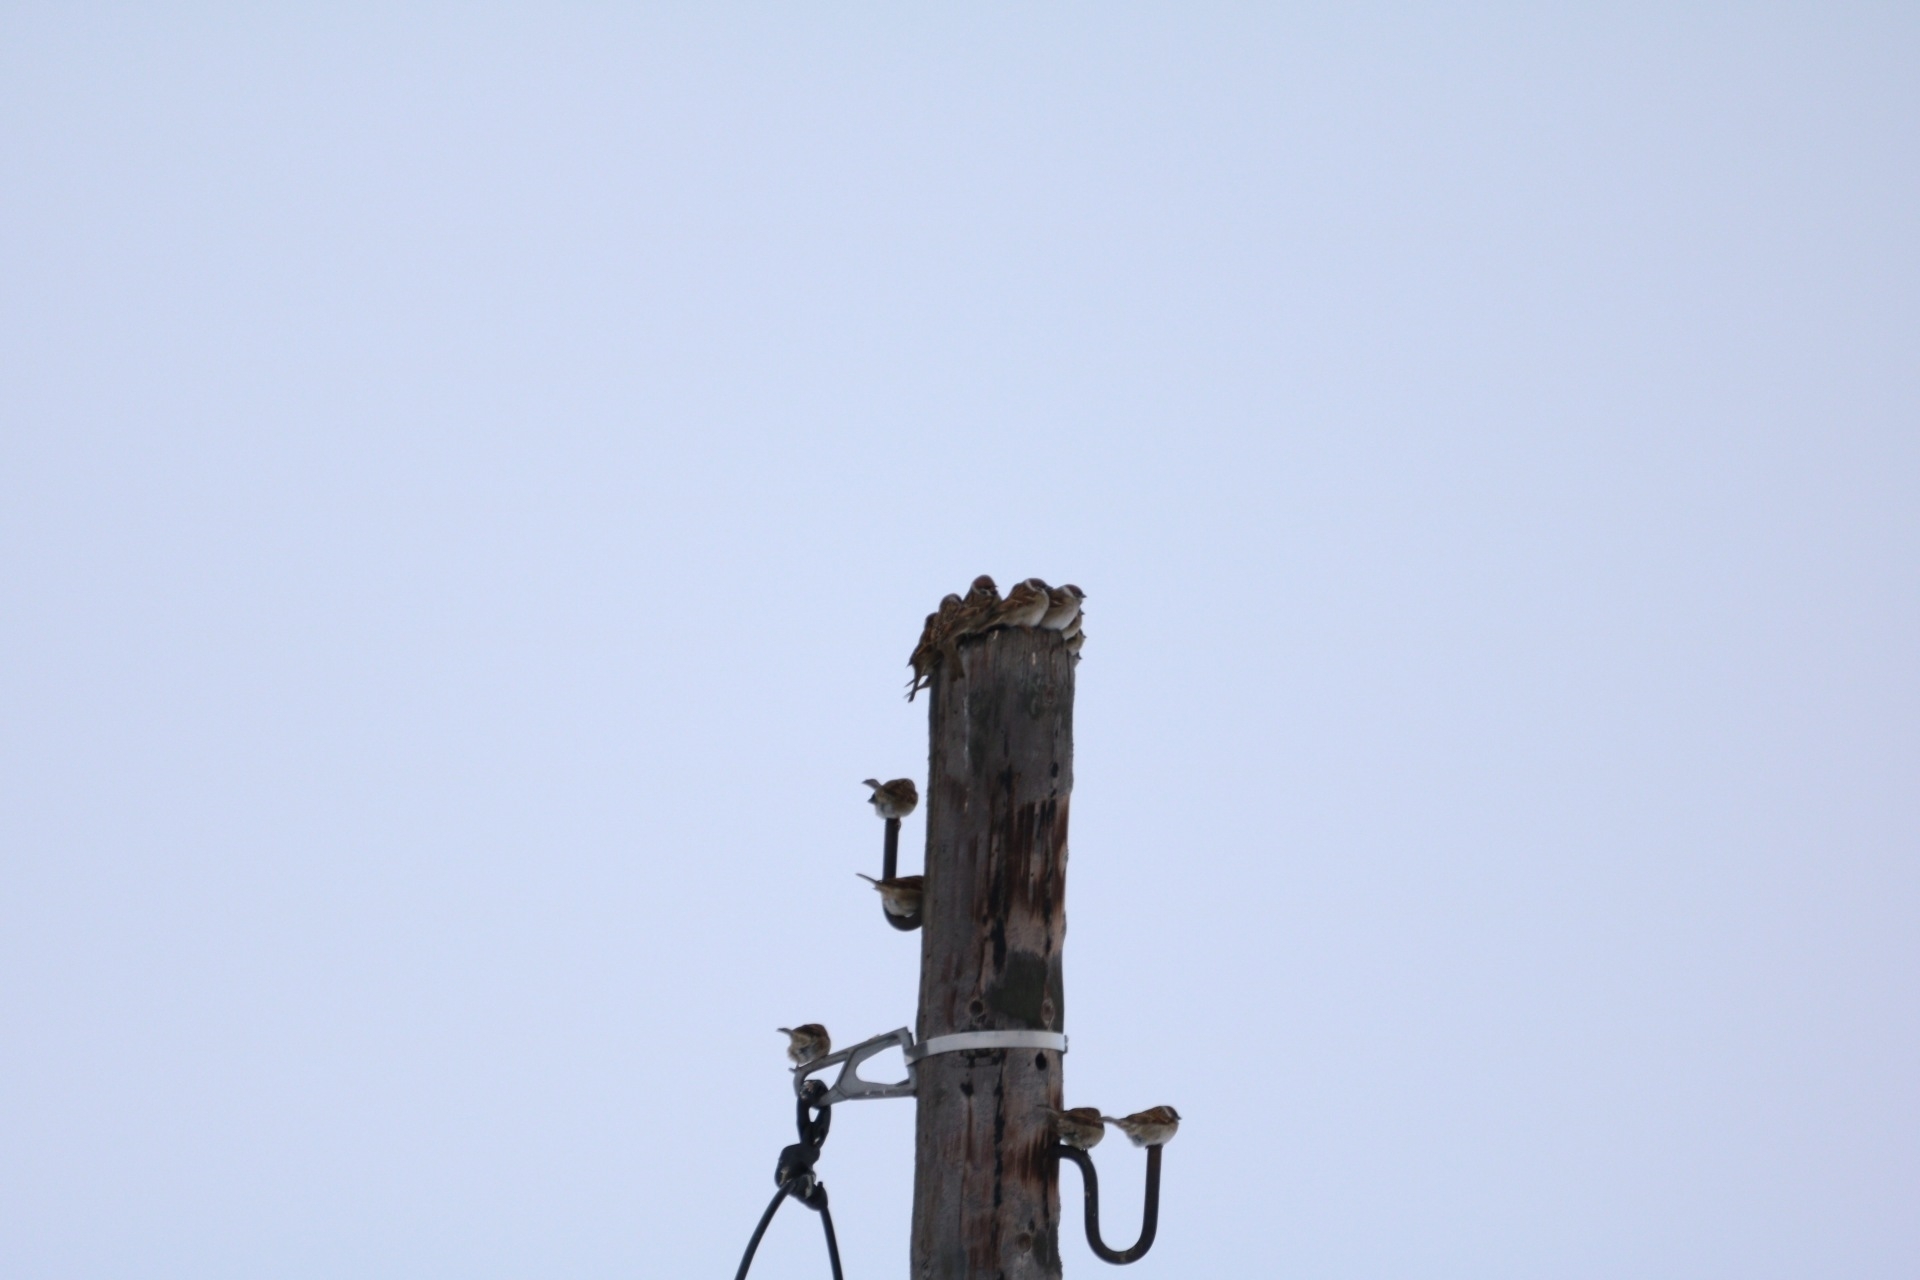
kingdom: Animalia
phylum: Chordata
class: Aves
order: Passeriformes
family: Passeridae
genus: Passer
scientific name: Passer montanus
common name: Eurasian tree sparrow
